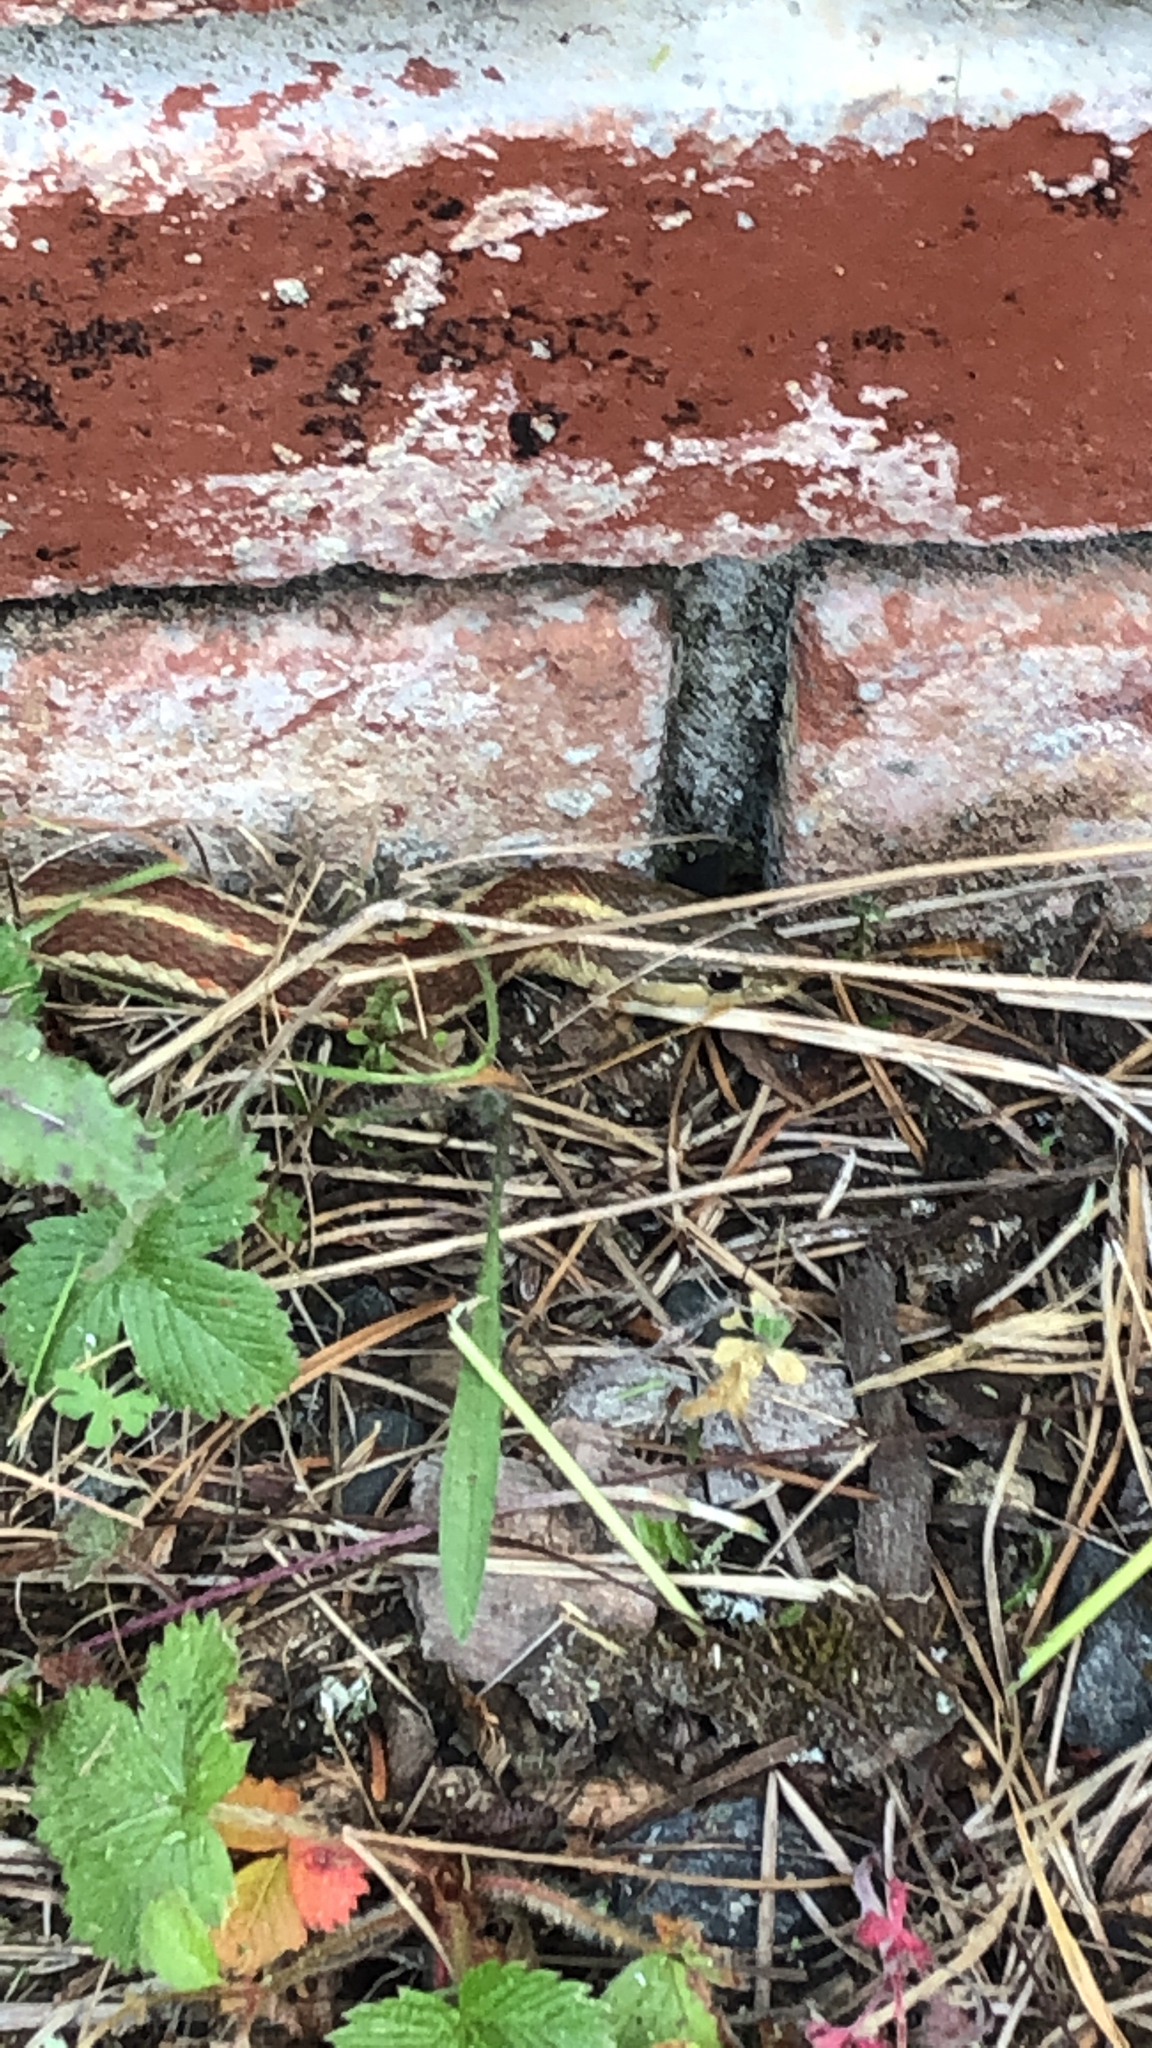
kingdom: Animalia
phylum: Chordata
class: Squamata
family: Colubridae
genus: Thamnophis
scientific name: Thamnophis elegans
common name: Western terrestrial garter snake
